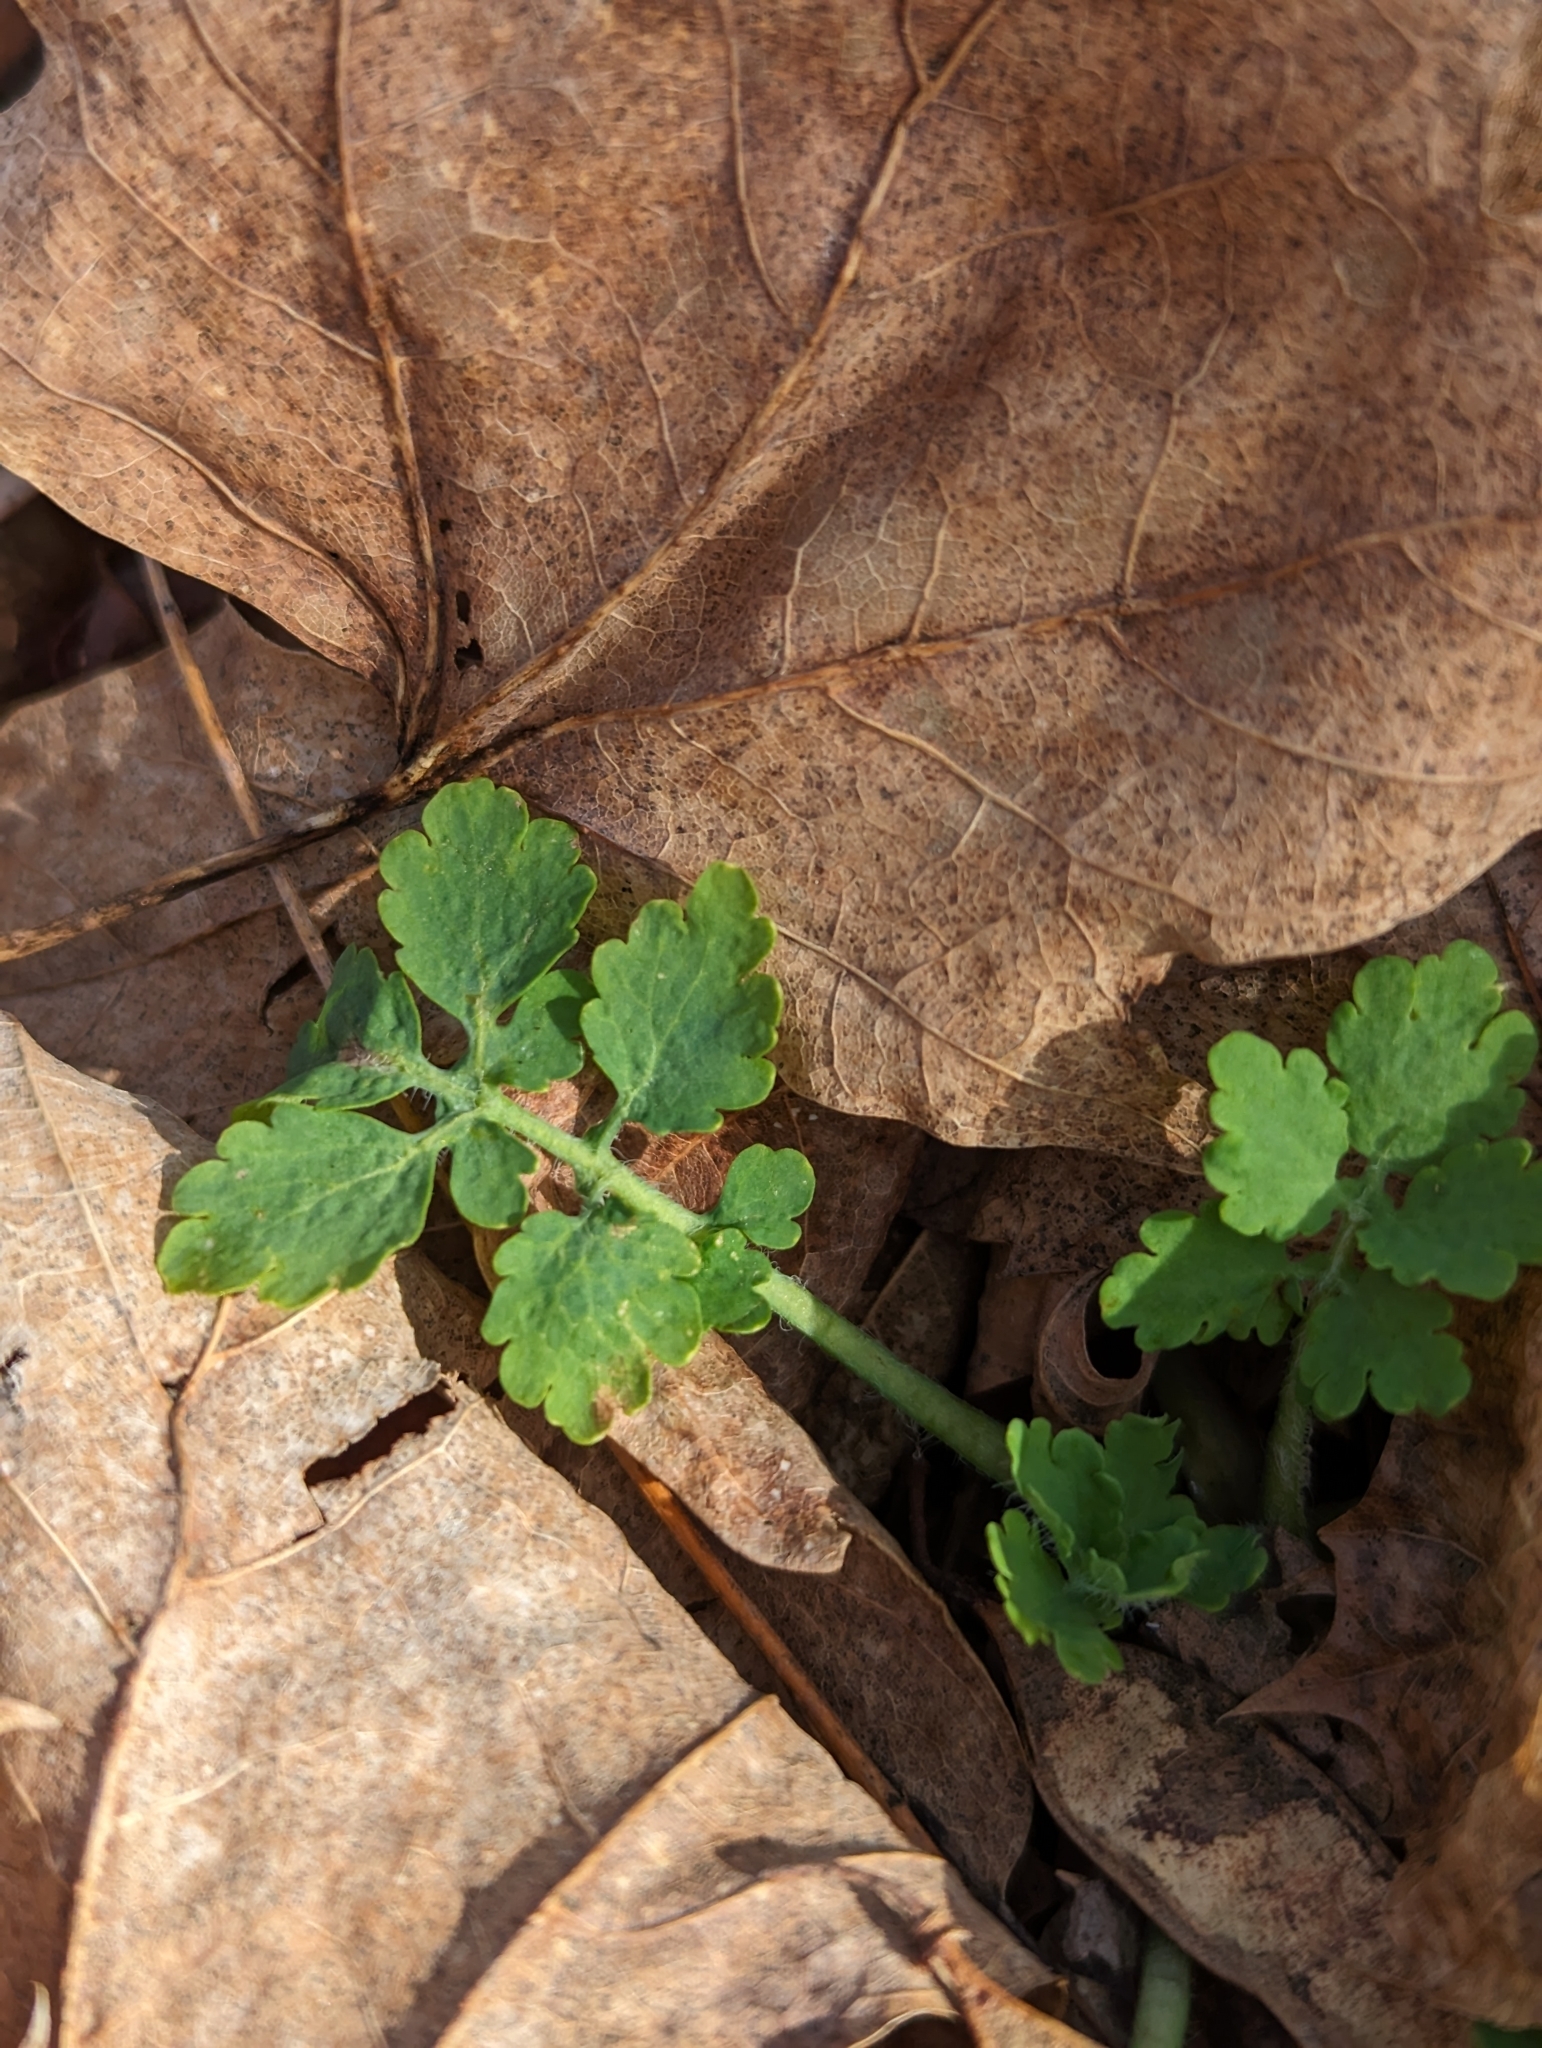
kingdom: Plantae
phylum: Tracheophyta
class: Magnoliopsida
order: Ranunculales
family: Papaveraceae
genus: Chelidonium
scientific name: Chelidonium majus
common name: Greater celandine
